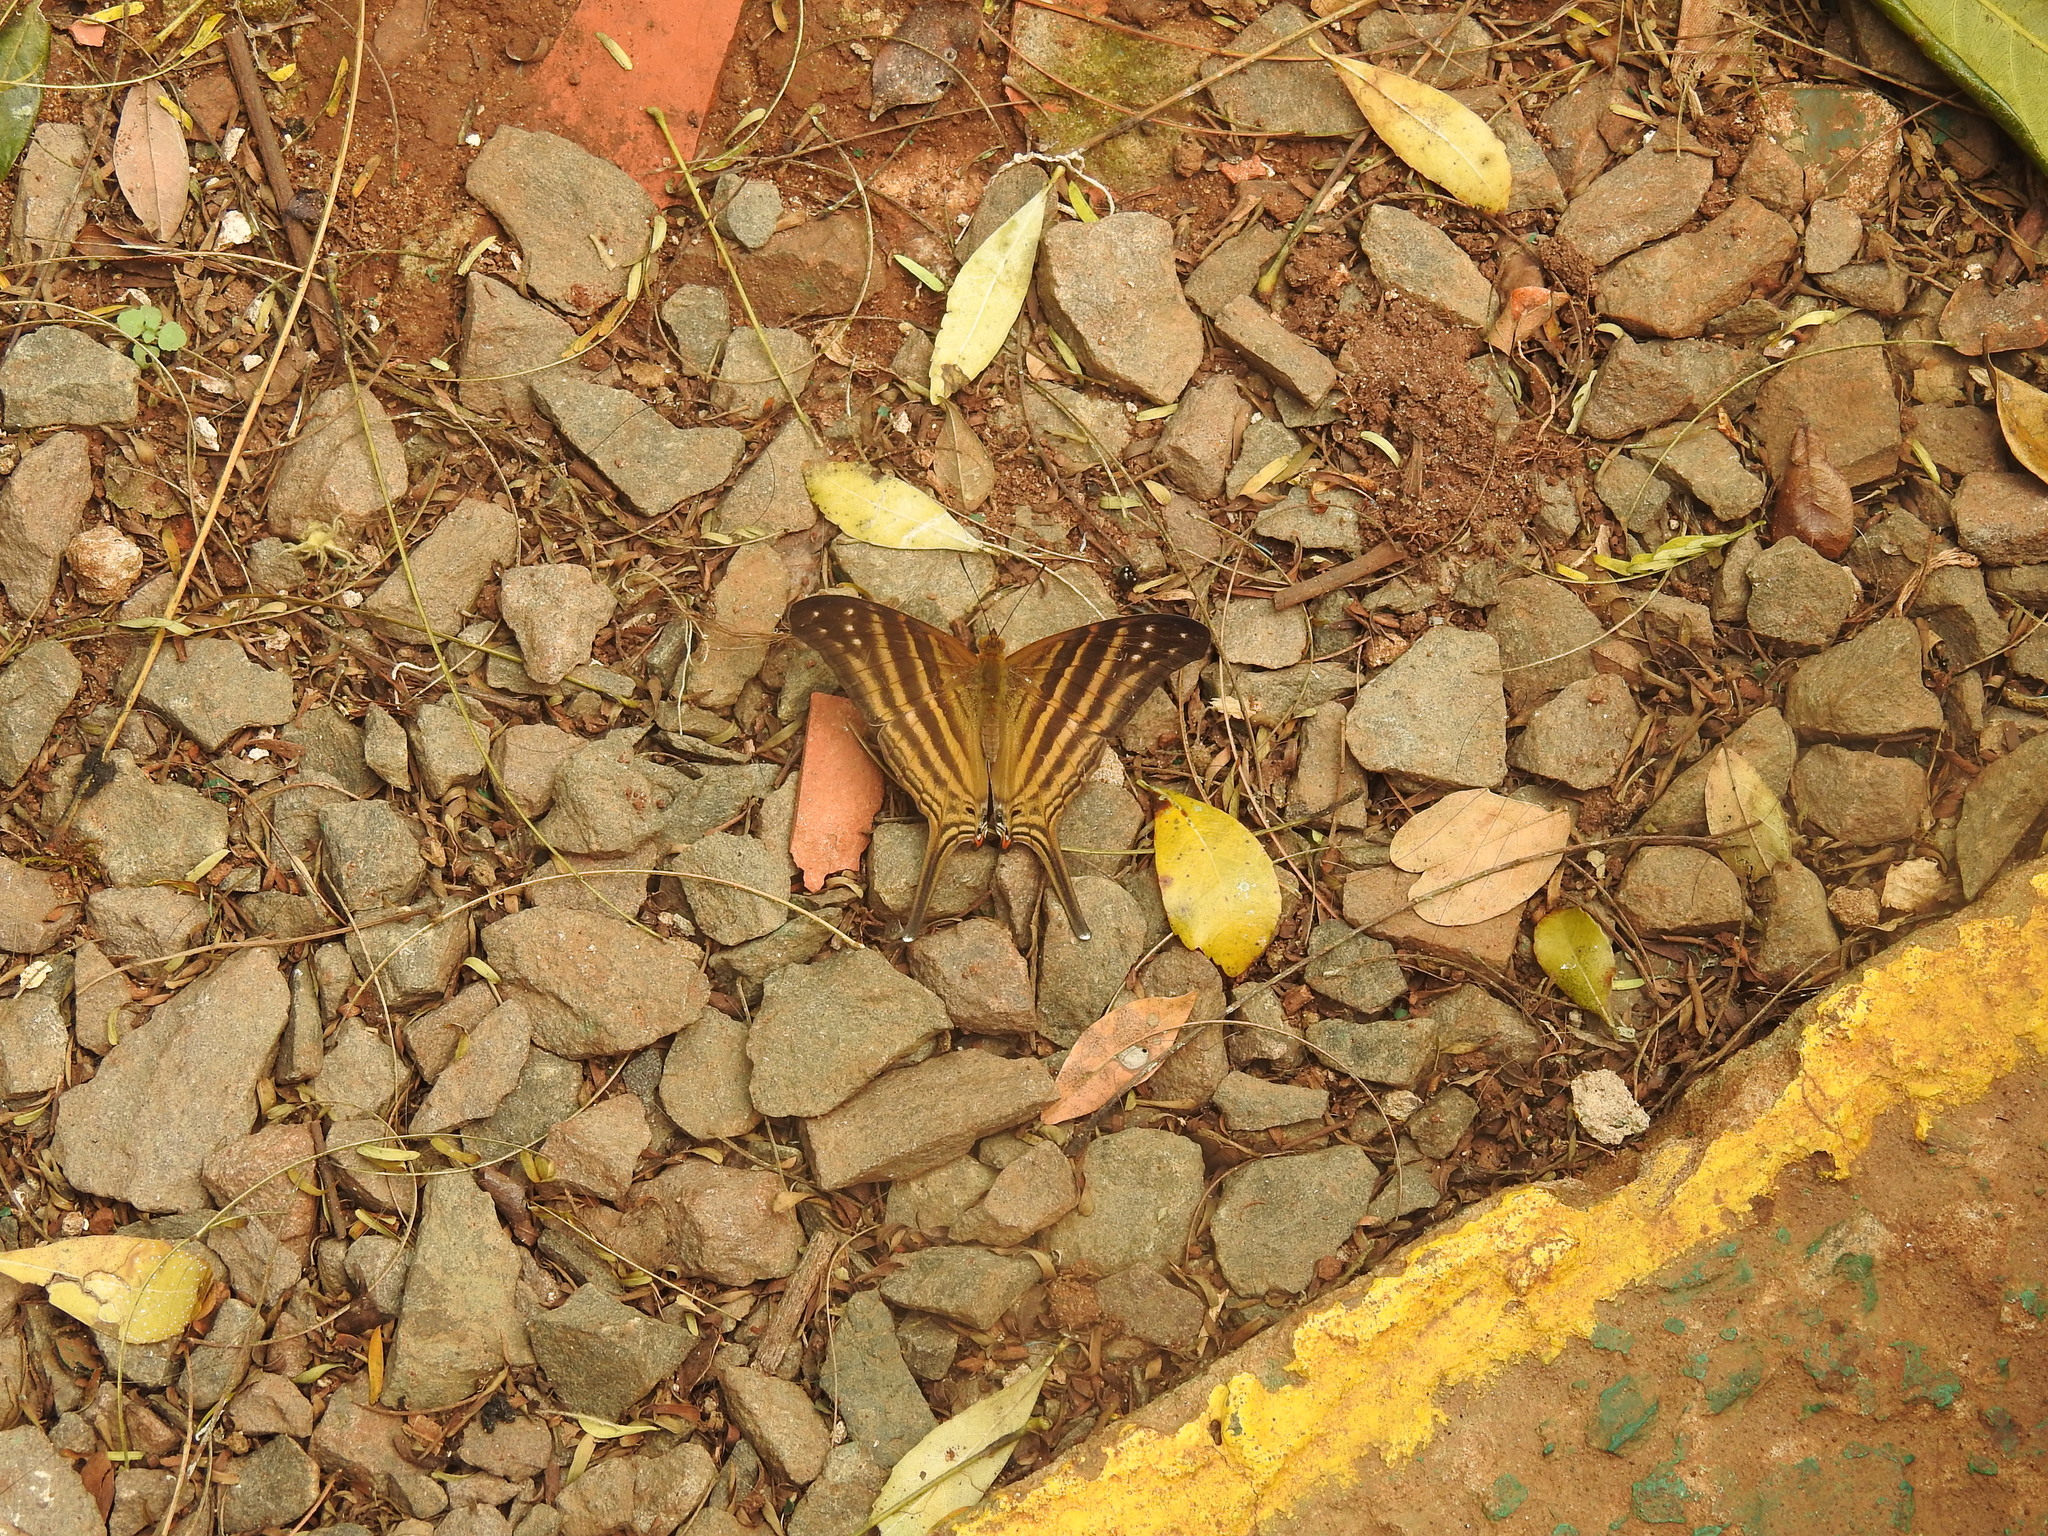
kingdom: Animalia
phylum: Arthropoda
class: Insecta
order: Lepidoptera
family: Nymphalidae
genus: Marpesia
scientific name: Marpesia chiron
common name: Many-banded daggerwing
